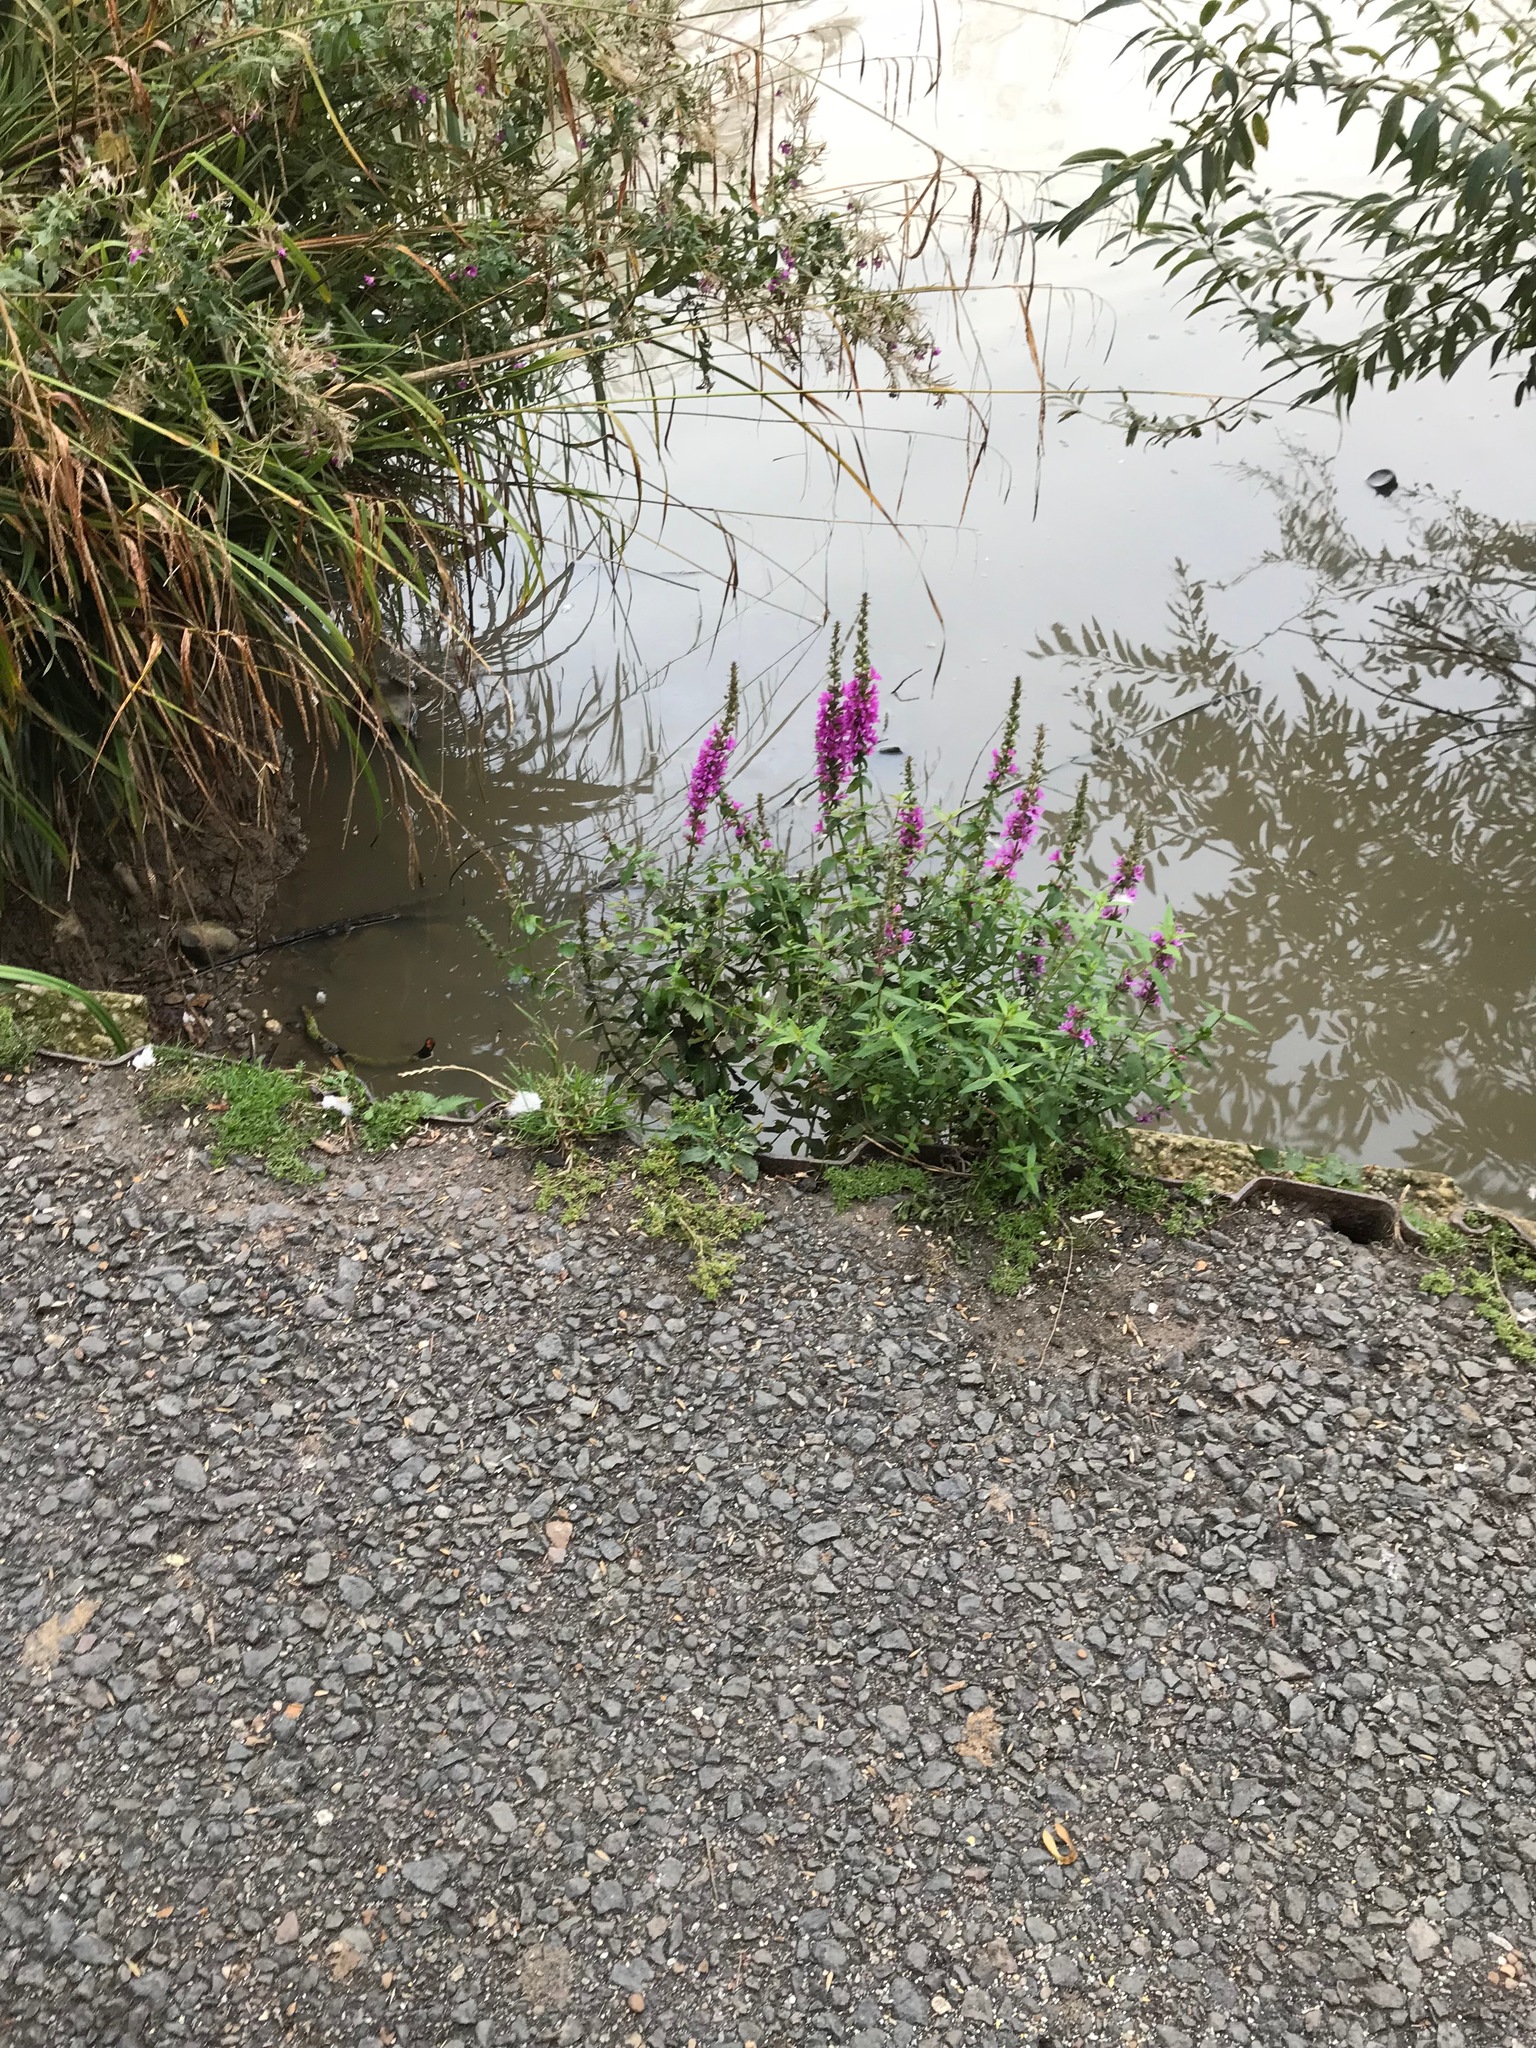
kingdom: Plantae
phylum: Tracheophyta
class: Magnoliopsida
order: Myrtales
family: Lythraceae
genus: Lythrum
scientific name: Lythrum salicaria
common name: Purple loosestrife
